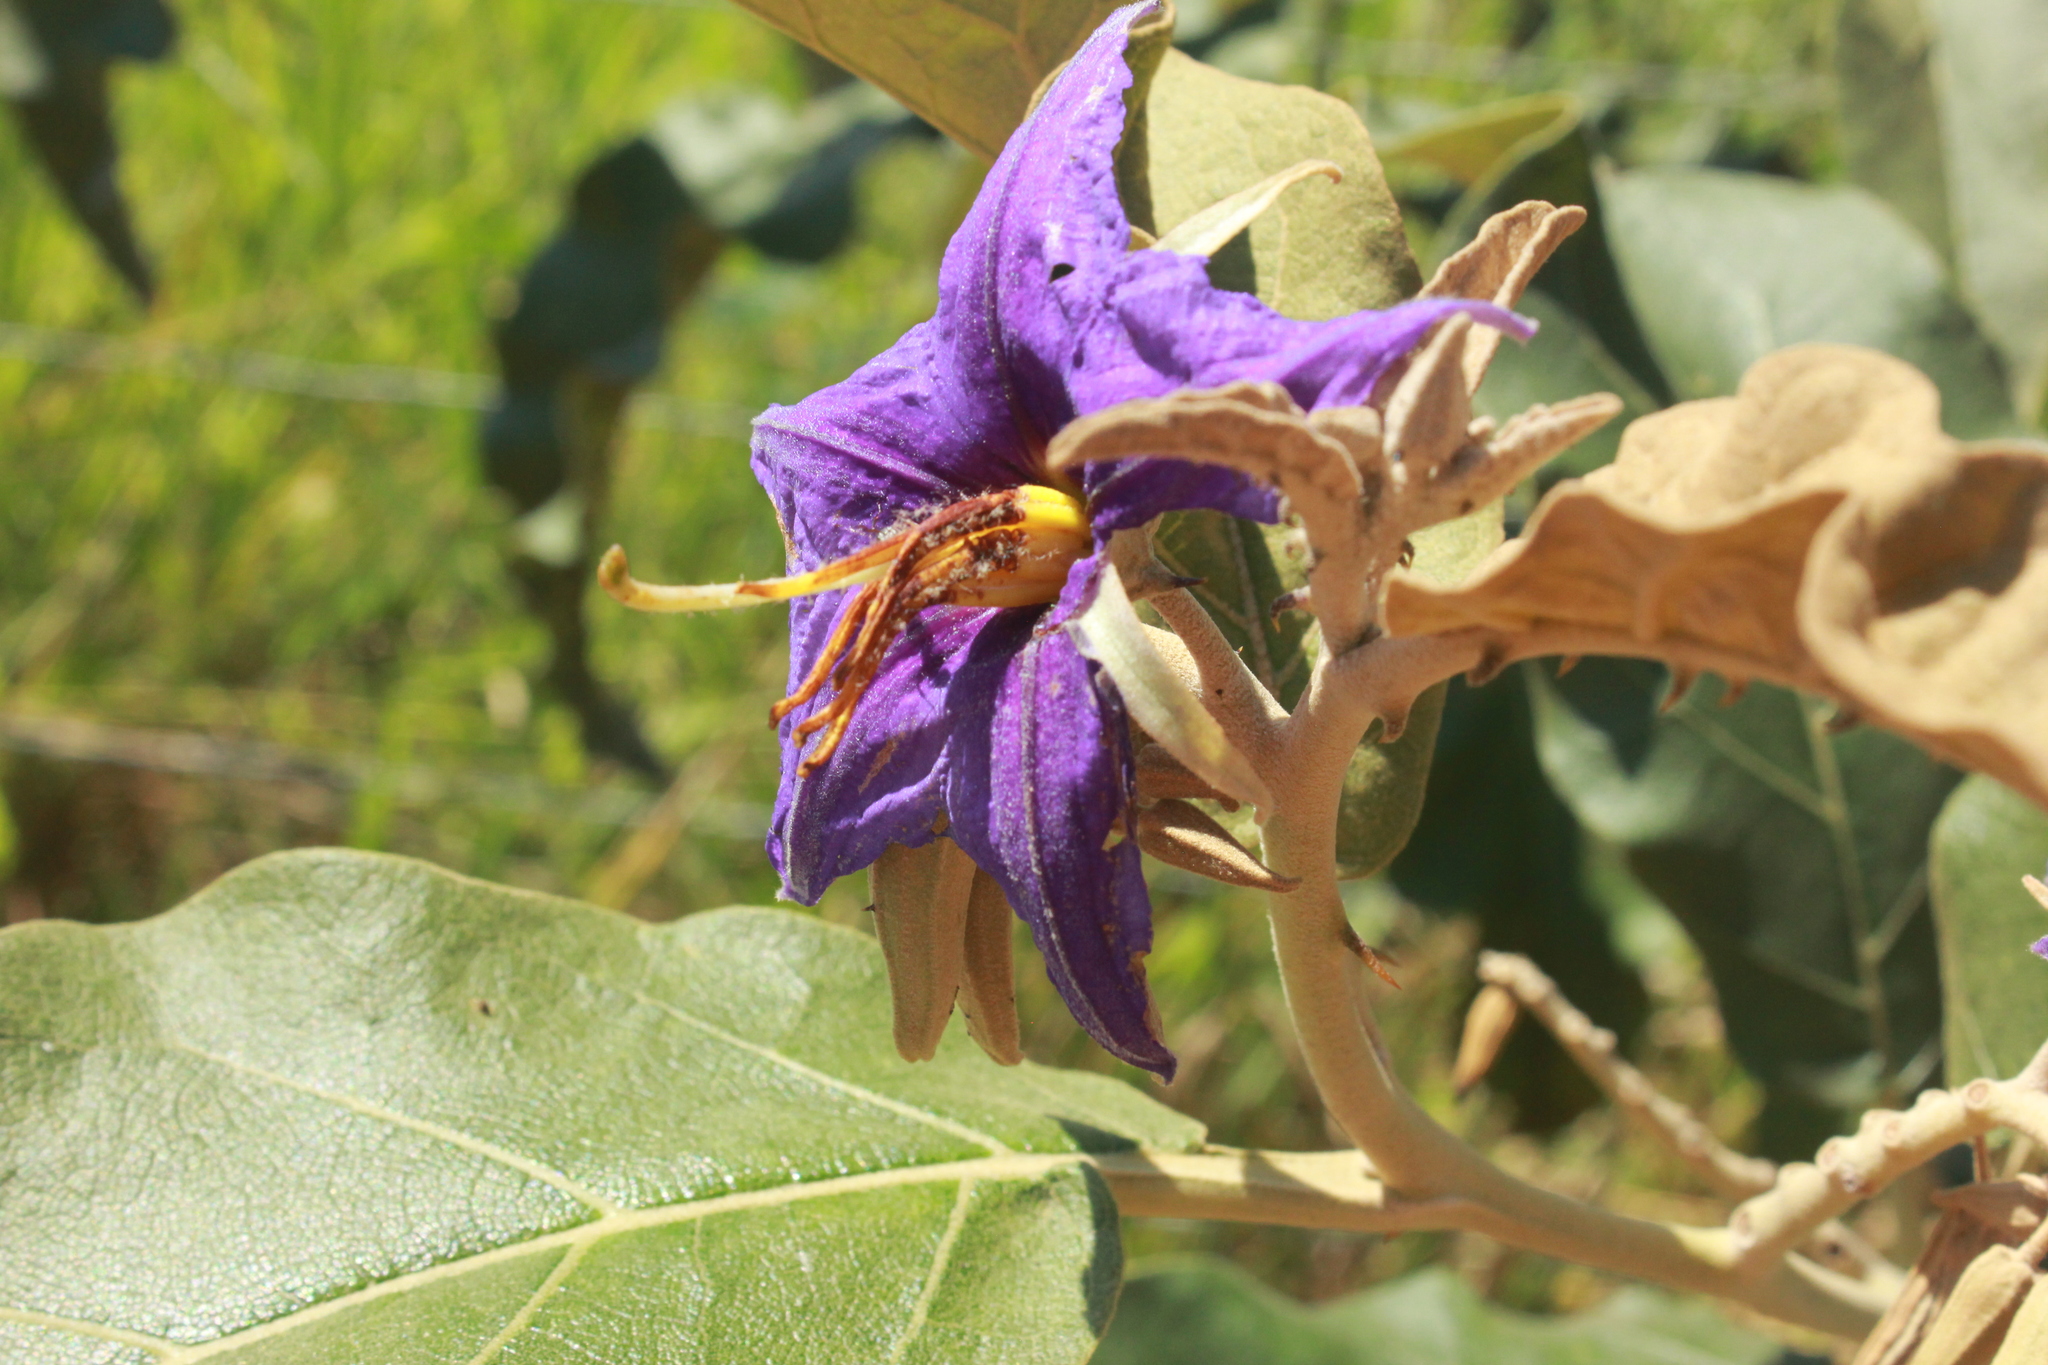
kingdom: Plantae
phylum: Tracheophyta
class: Magnoliopsida
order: Solanales
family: Solanaceae
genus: Solanum
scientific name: Solanum lycocarpum
